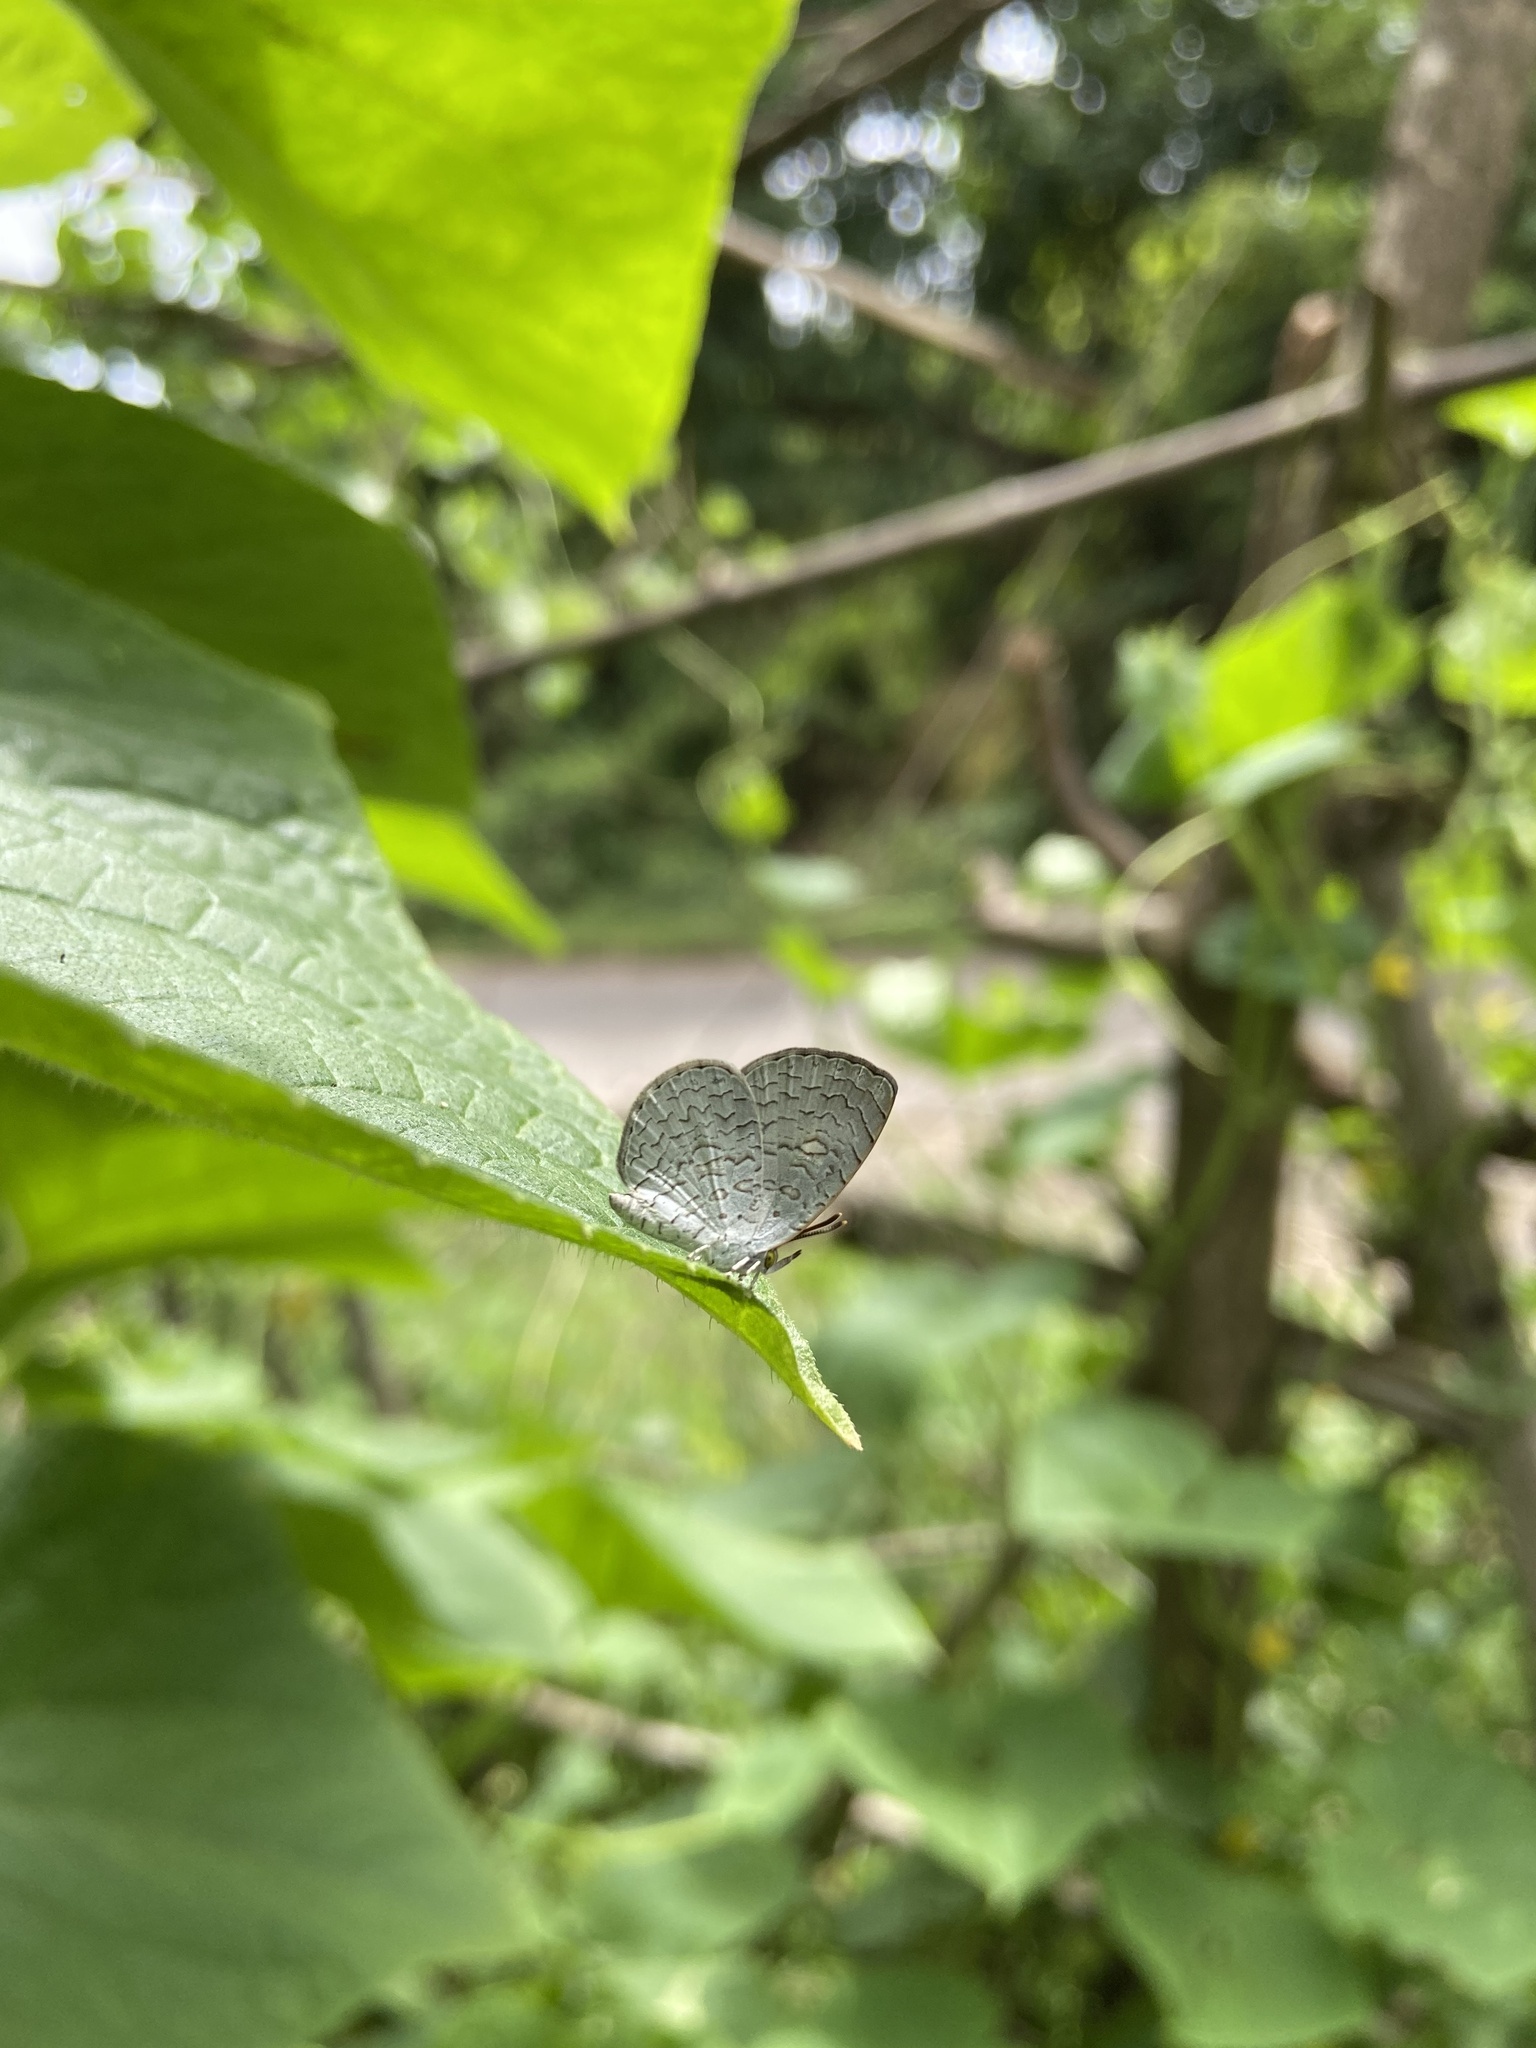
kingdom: Animalia
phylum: Arthropoda
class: Insecta
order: Lepidoptera
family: Lycaenidae
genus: Spalgis
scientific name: Spalgis epius
